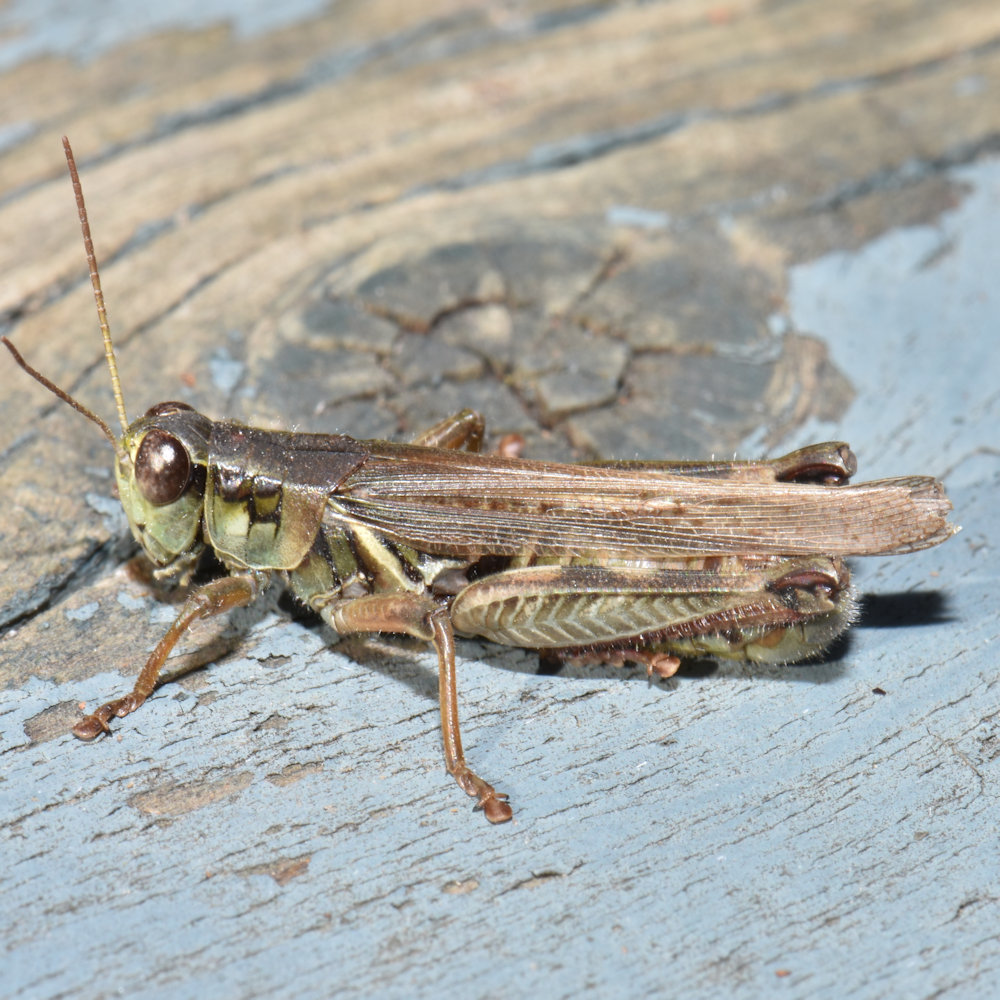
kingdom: Animalia
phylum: Arthropoda
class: Insecta
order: Orthoptera
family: Acrididae
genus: Melanoplus
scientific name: Melanoplus femurrubrum
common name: Red-legged grasshopper
